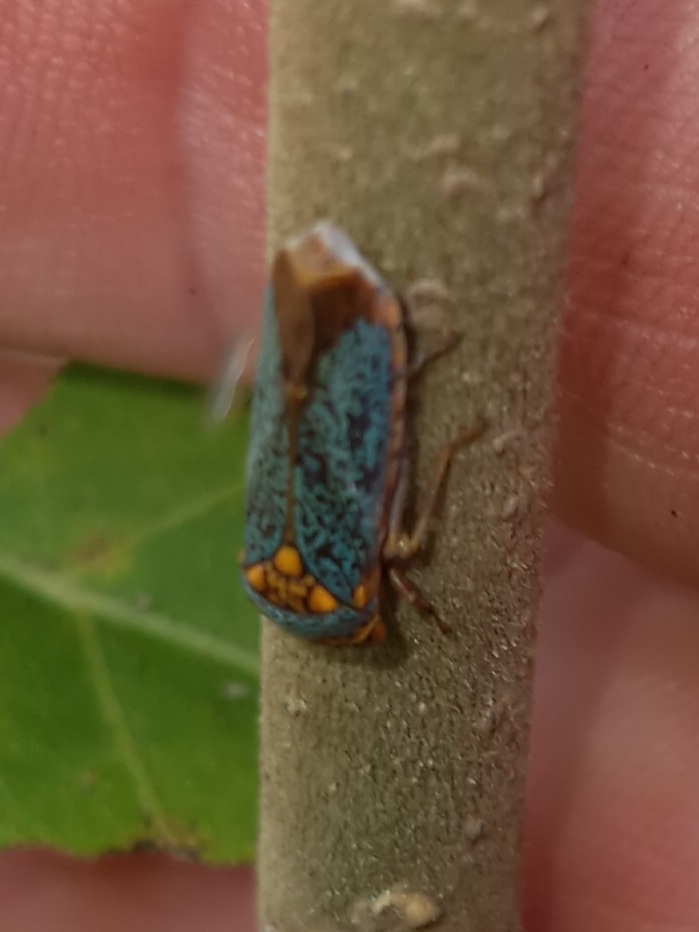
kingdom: Animalia
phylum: Arthropoda
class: Insecta
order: Hemiptera
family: Cicadellidae
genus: Oncometopia
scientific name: Oncometopia orbona
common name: Broad-headed sharpshooter
